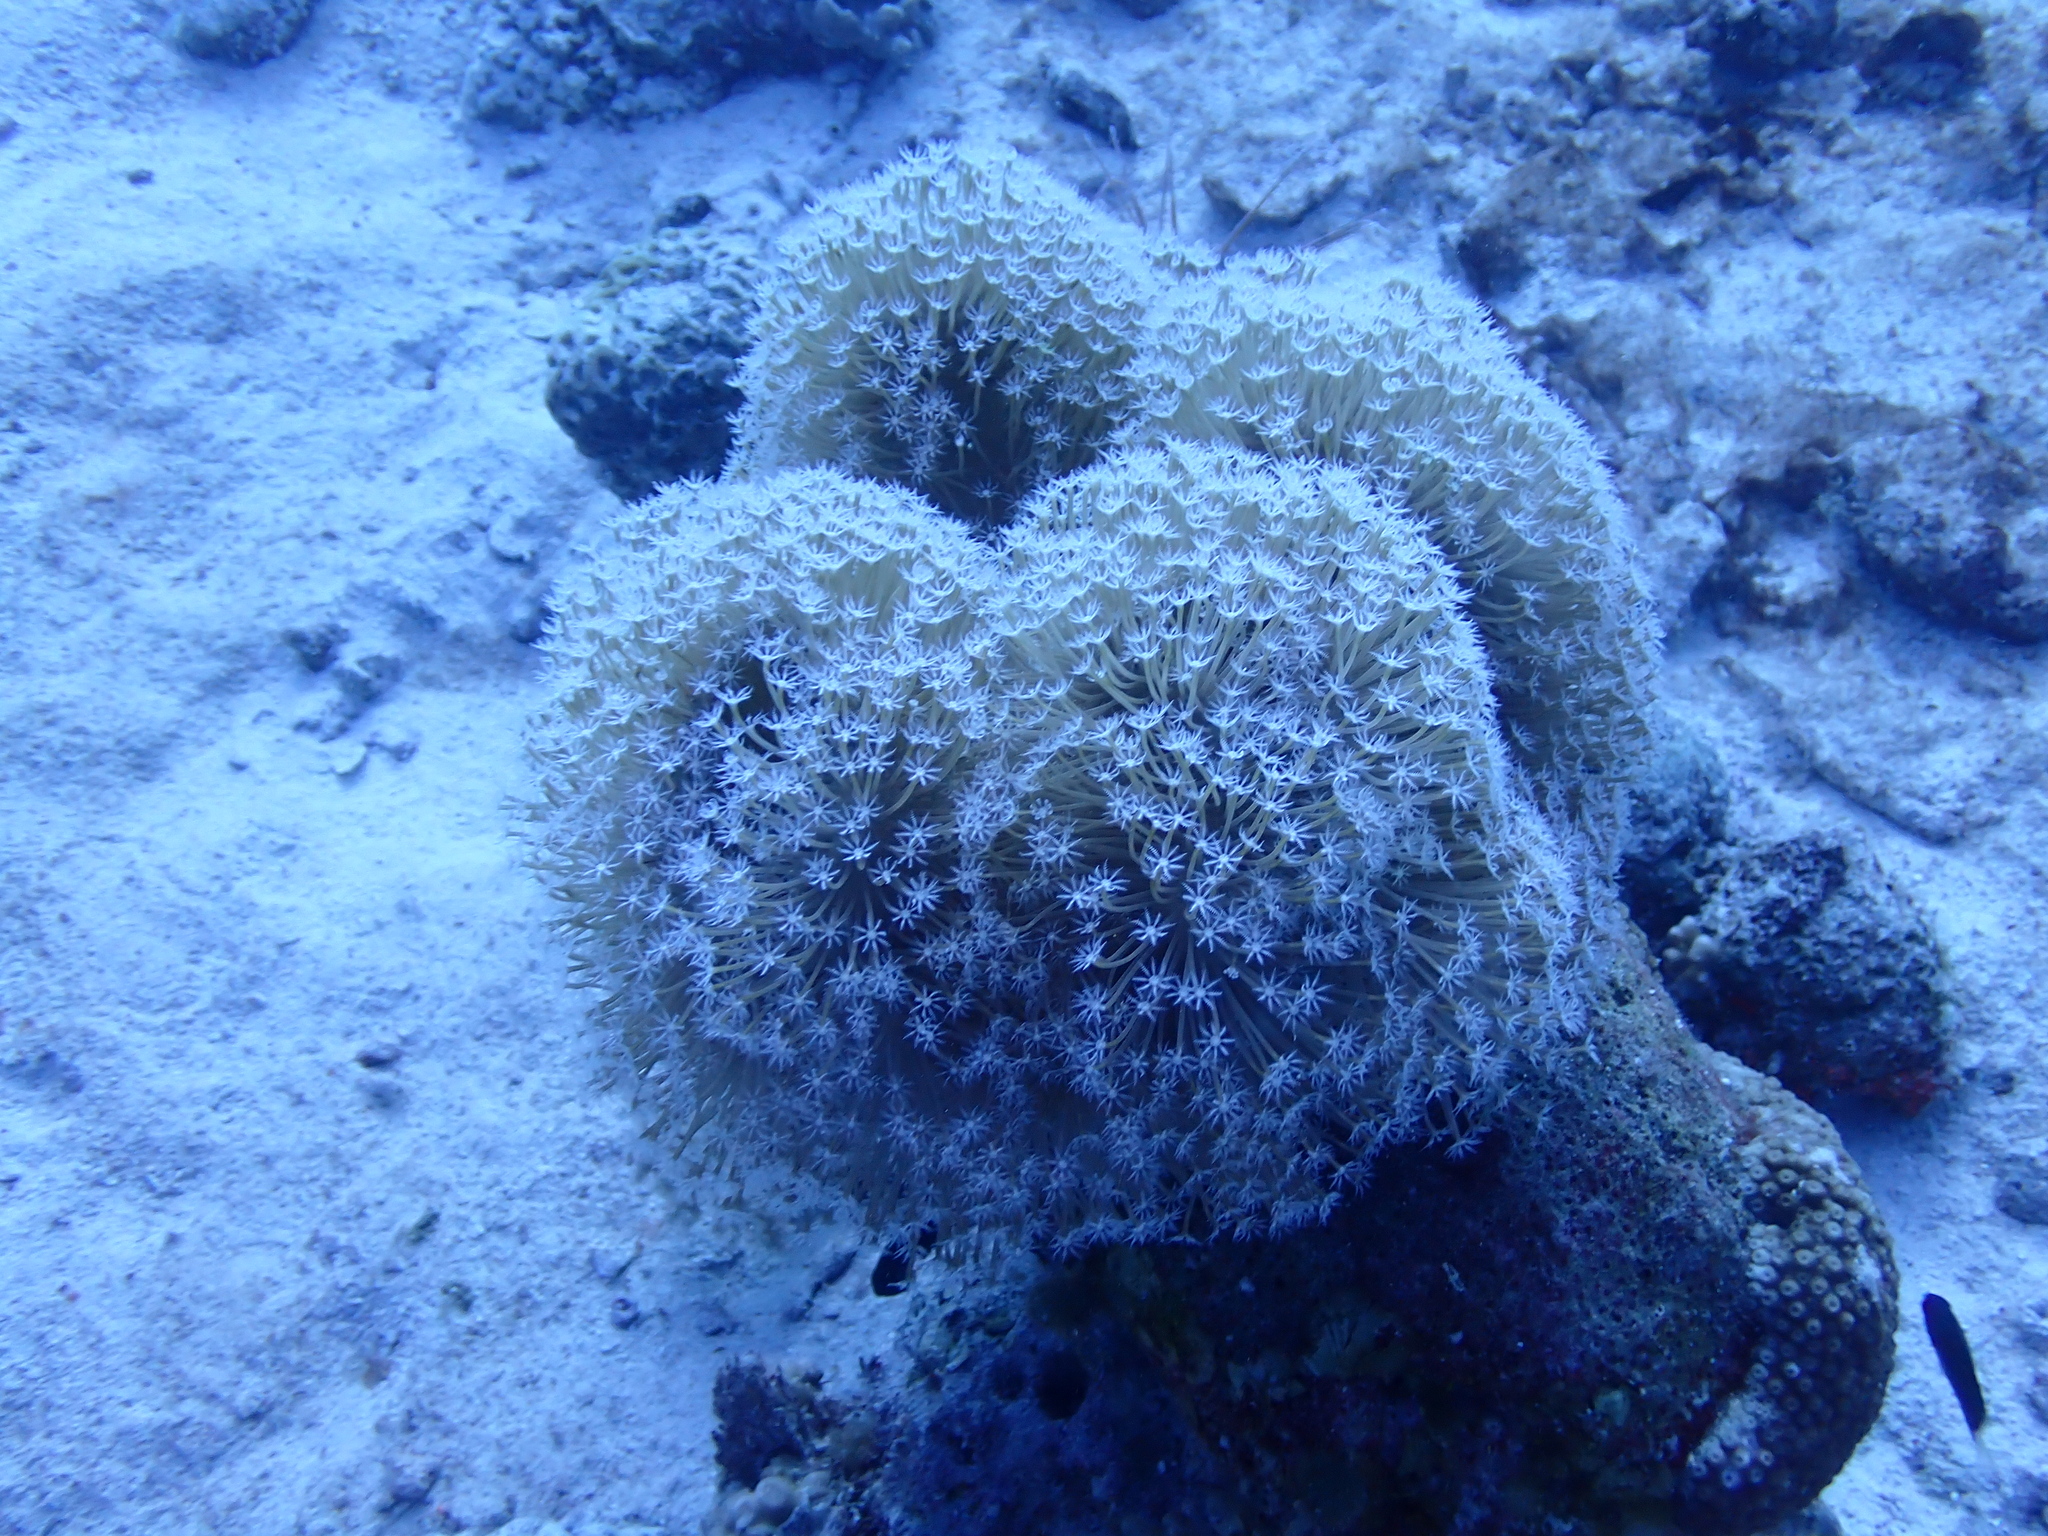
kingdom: Animalia
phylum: Cnidaria
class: Anthozoa
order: Malacalcyonacea
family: Sarcophytidae
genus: Sarcophyton
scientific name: Sarcophyton
